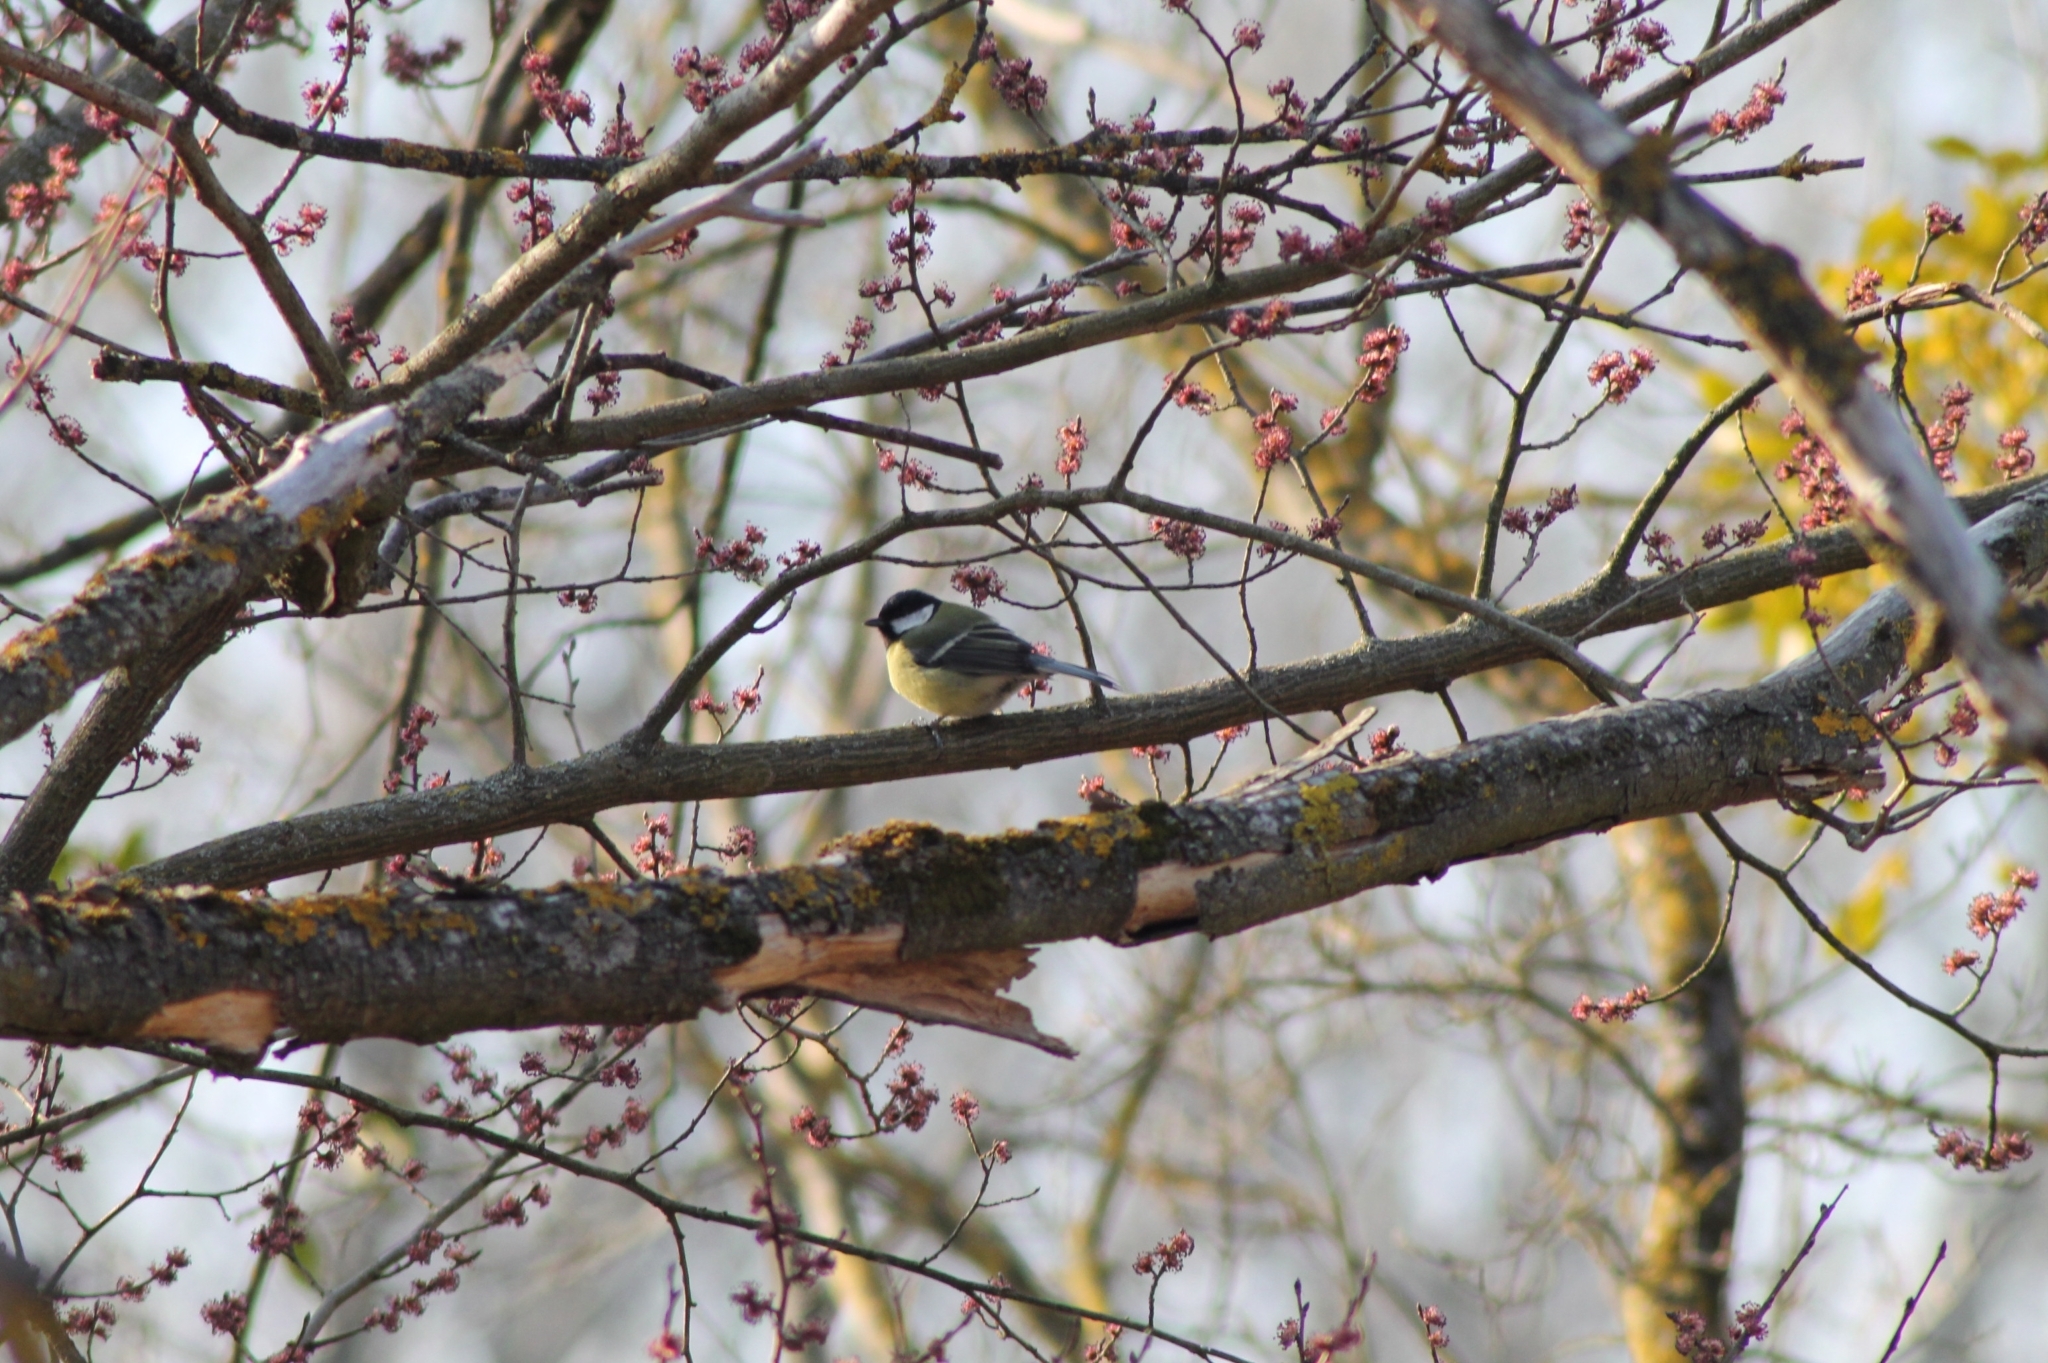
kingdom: Animalia
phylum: Chordata
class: Aves
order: Passeriformes
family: Paridae
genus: Parus
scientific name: Parus major
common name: Great tit
